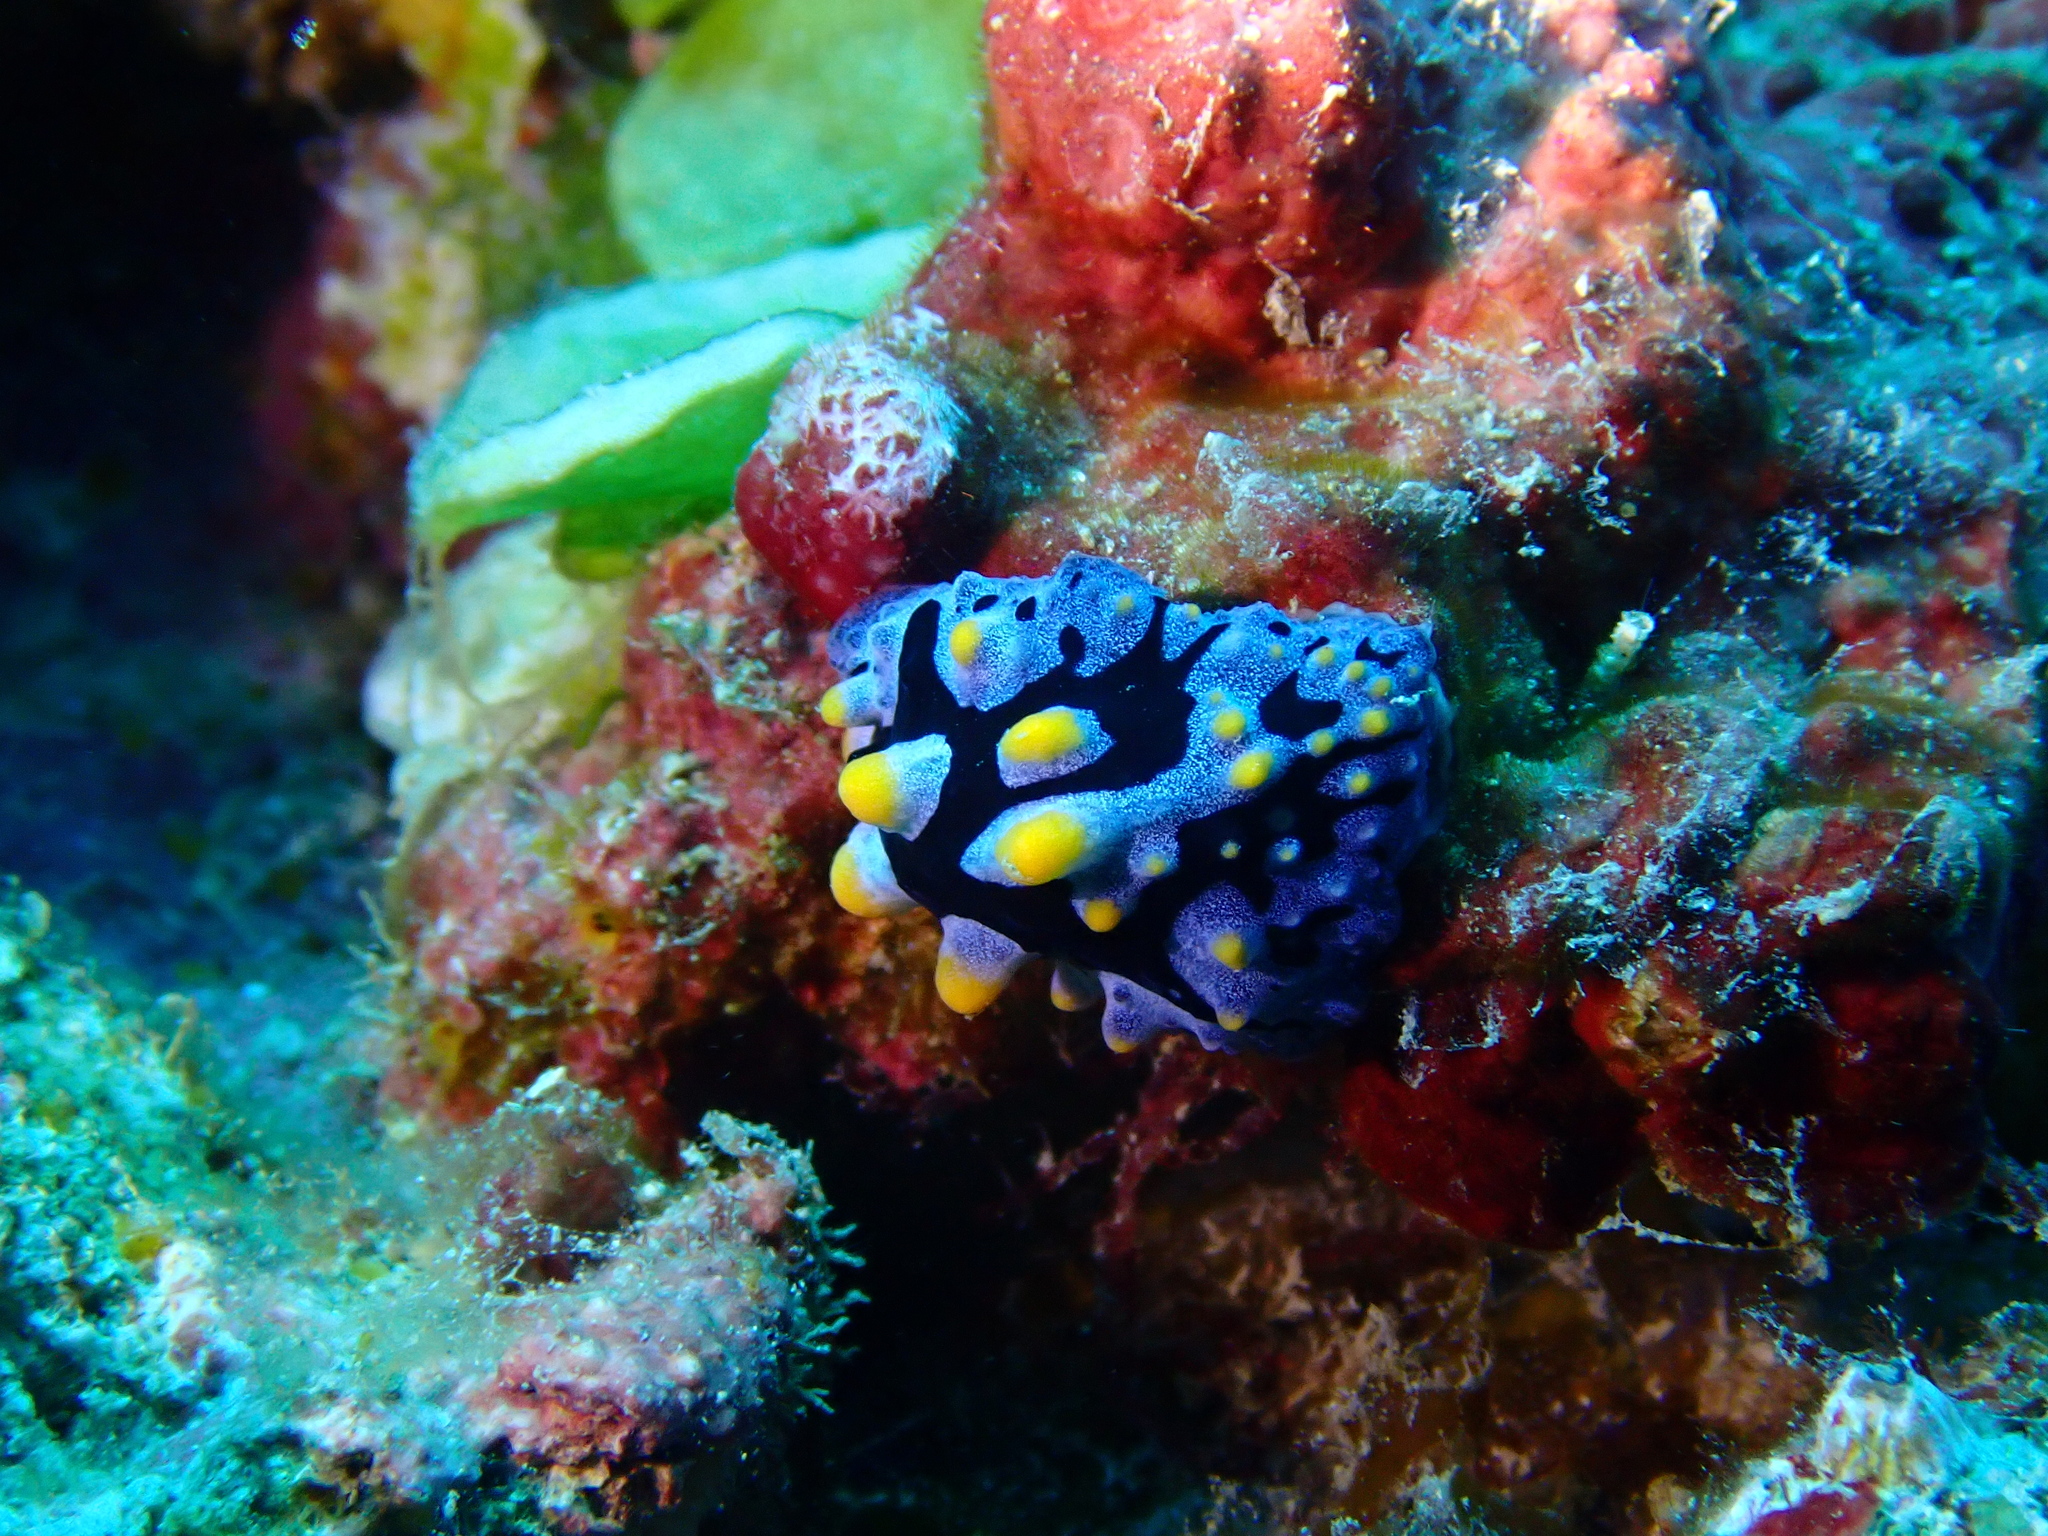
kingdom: Animalia
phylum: Mollusca
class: Gastropoda
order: Nudibranchia
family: Phyllidiidae
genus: Phyllidia
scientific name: Phyllidia picta
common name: Black-rayed phyllidia
